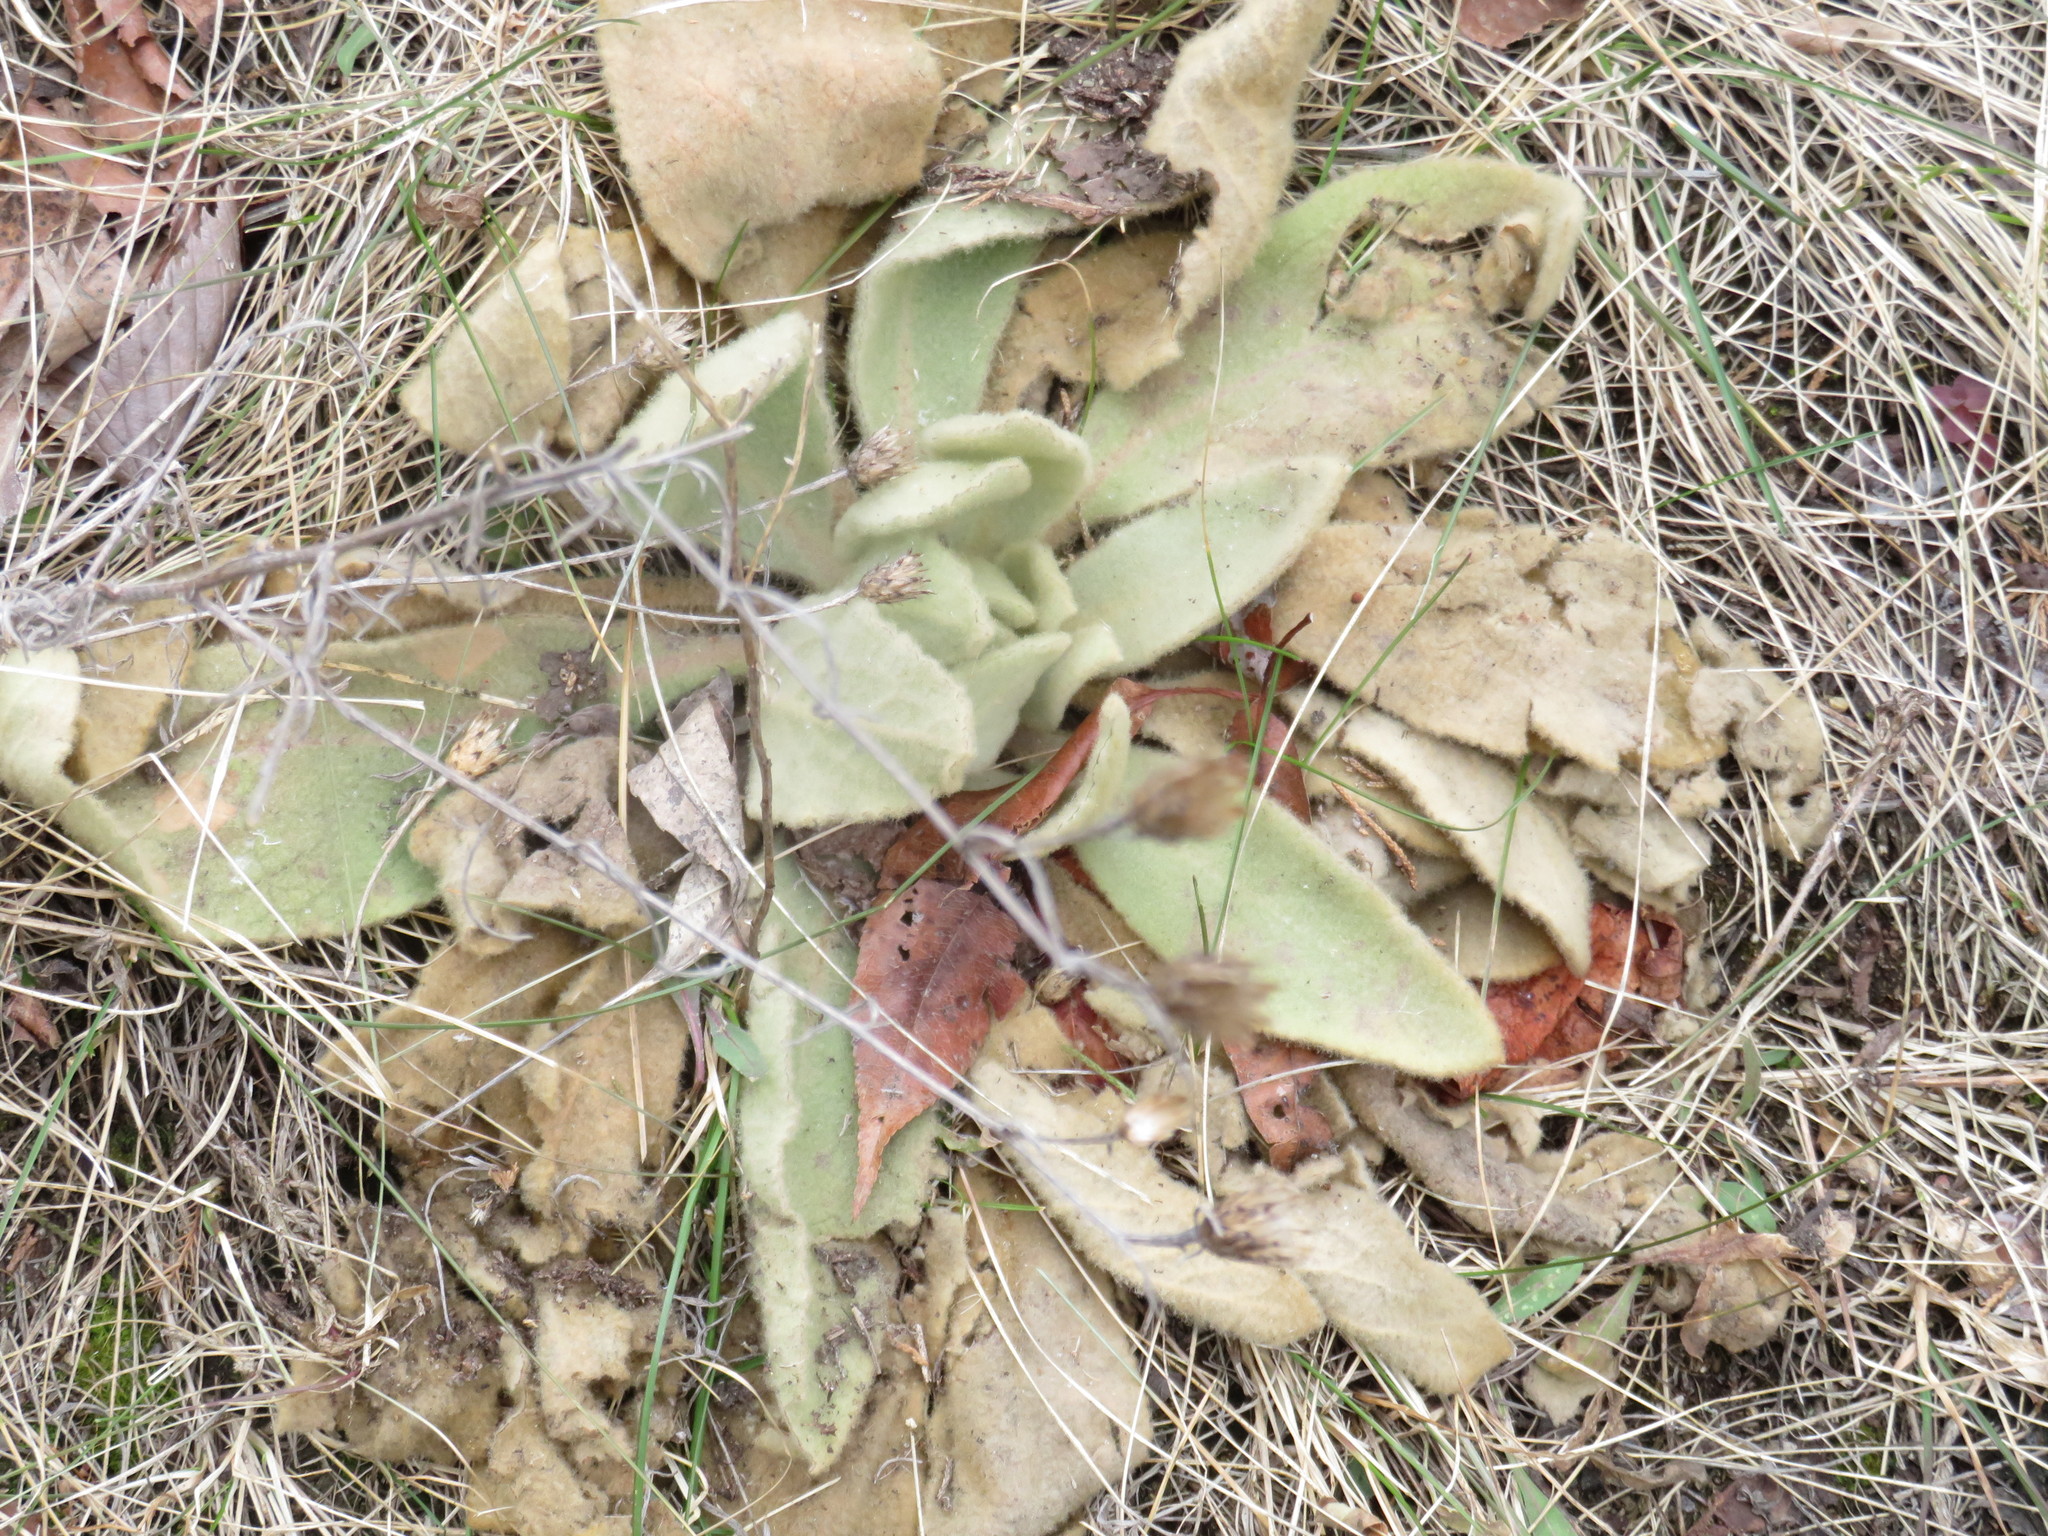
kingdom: Plantae
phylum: Tracheophyta
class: Magnoliopsida
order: Lamiales
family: Scrophulariaceae
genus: Verbascum
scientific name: Verbascum thapsus
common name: Common mullein
